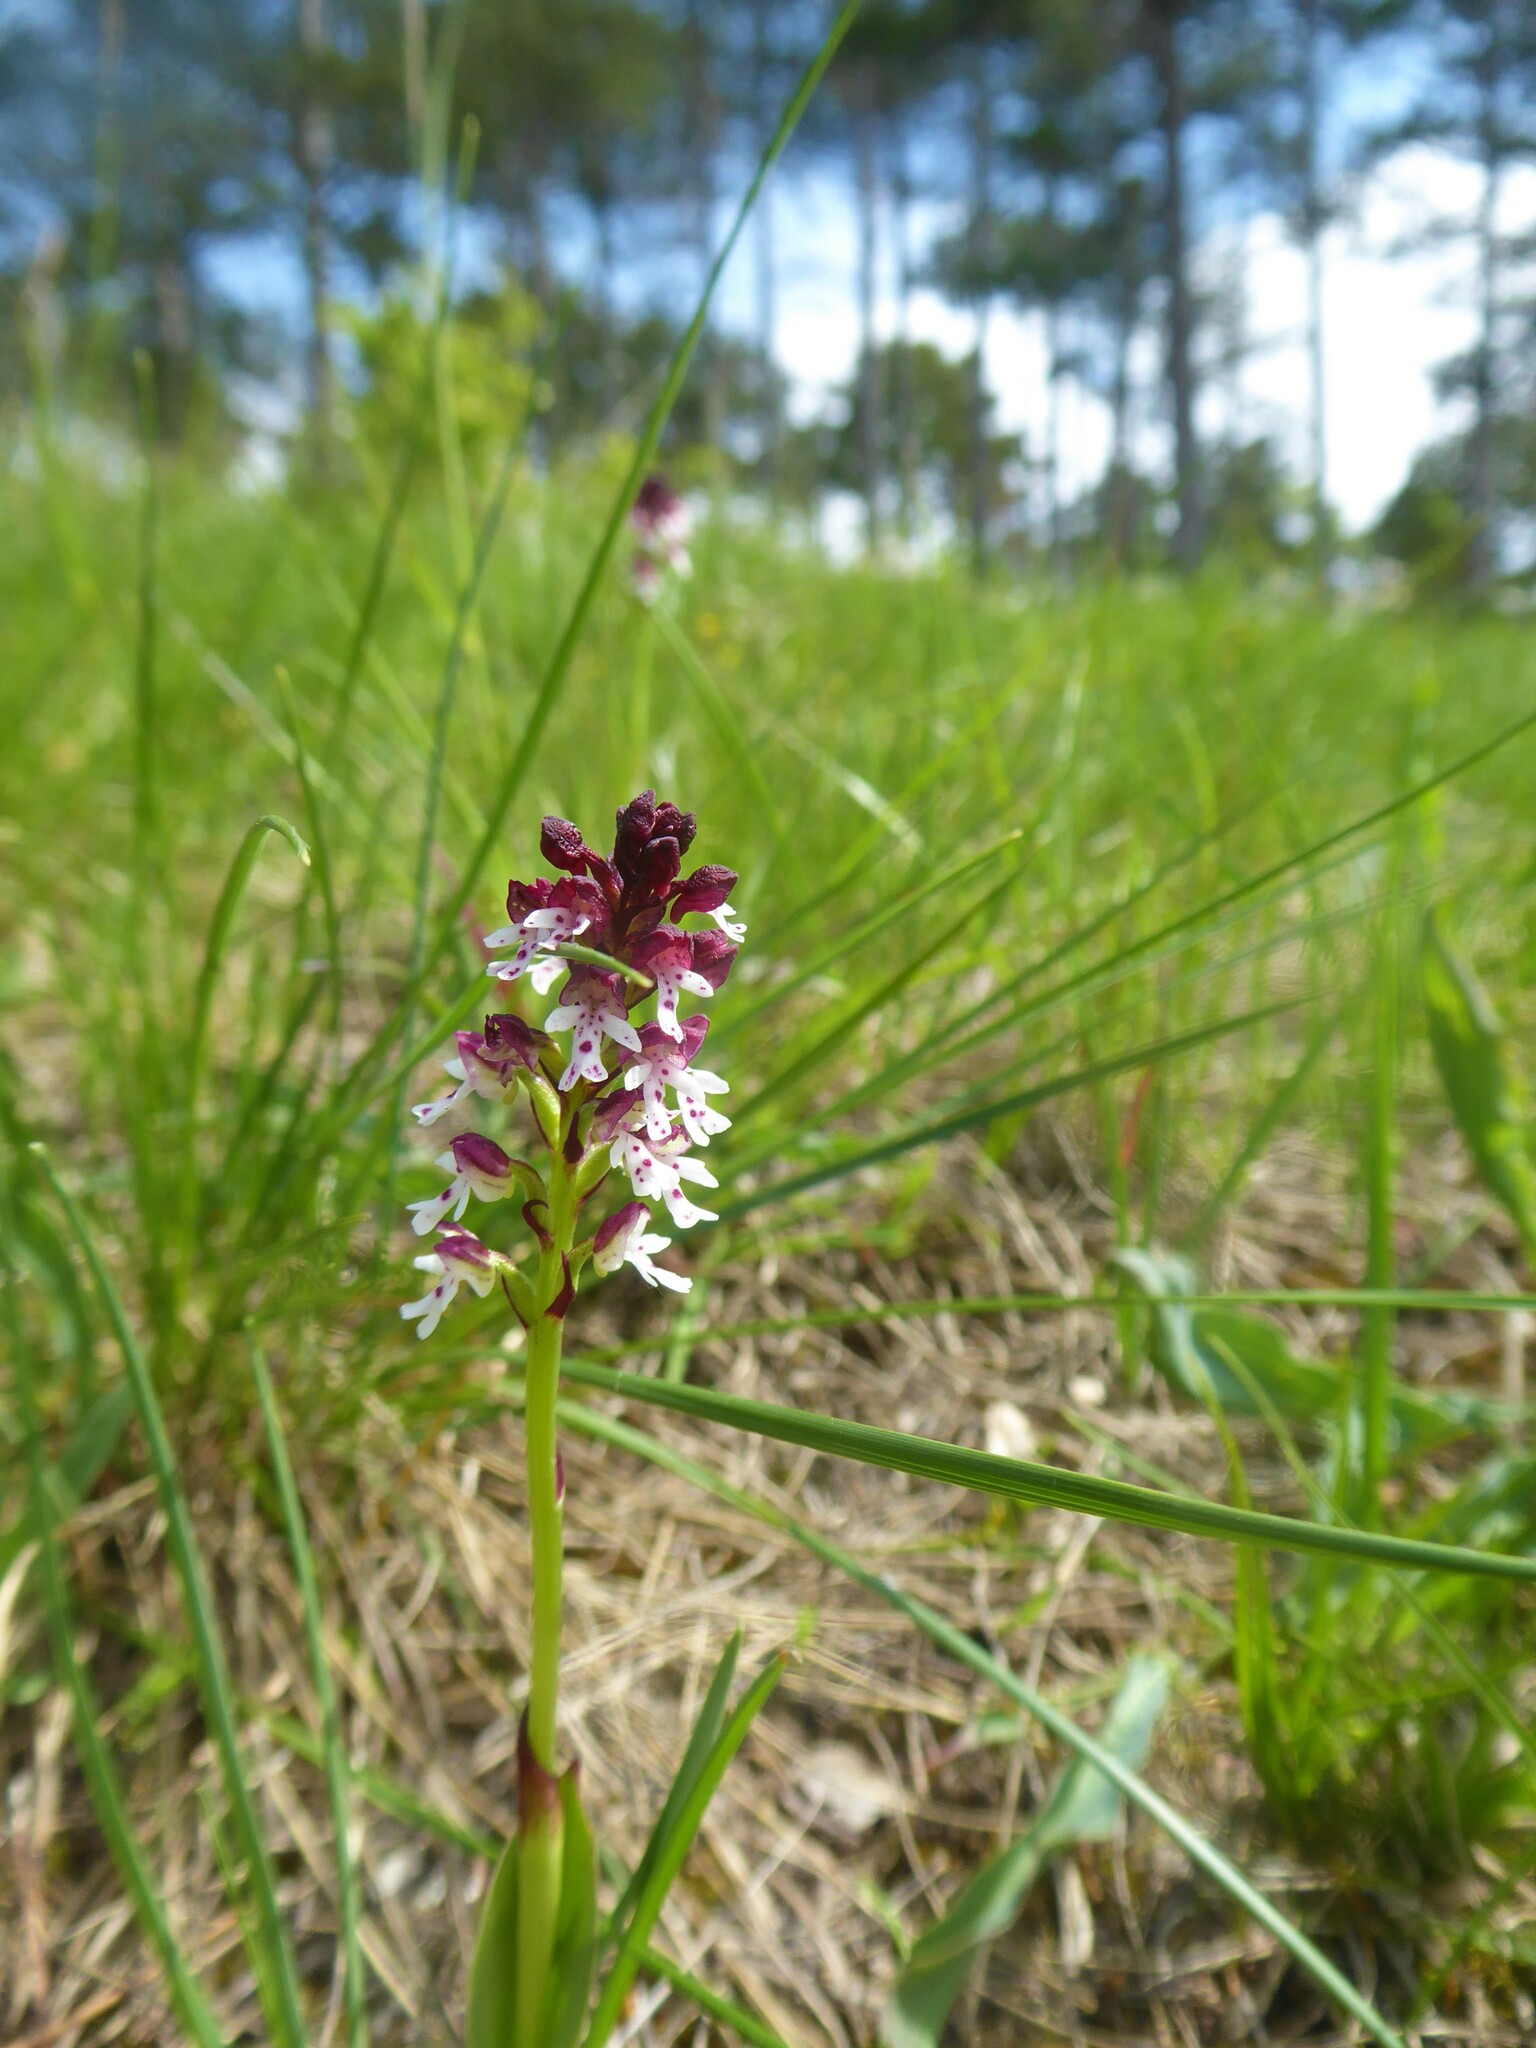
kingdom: Plantae
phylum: Tracheophyta
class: Liliopsida
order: Asparagales
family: Orchidaceae
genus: Neotinea
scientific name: Neotinea ustulata
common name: Burnt orchid
